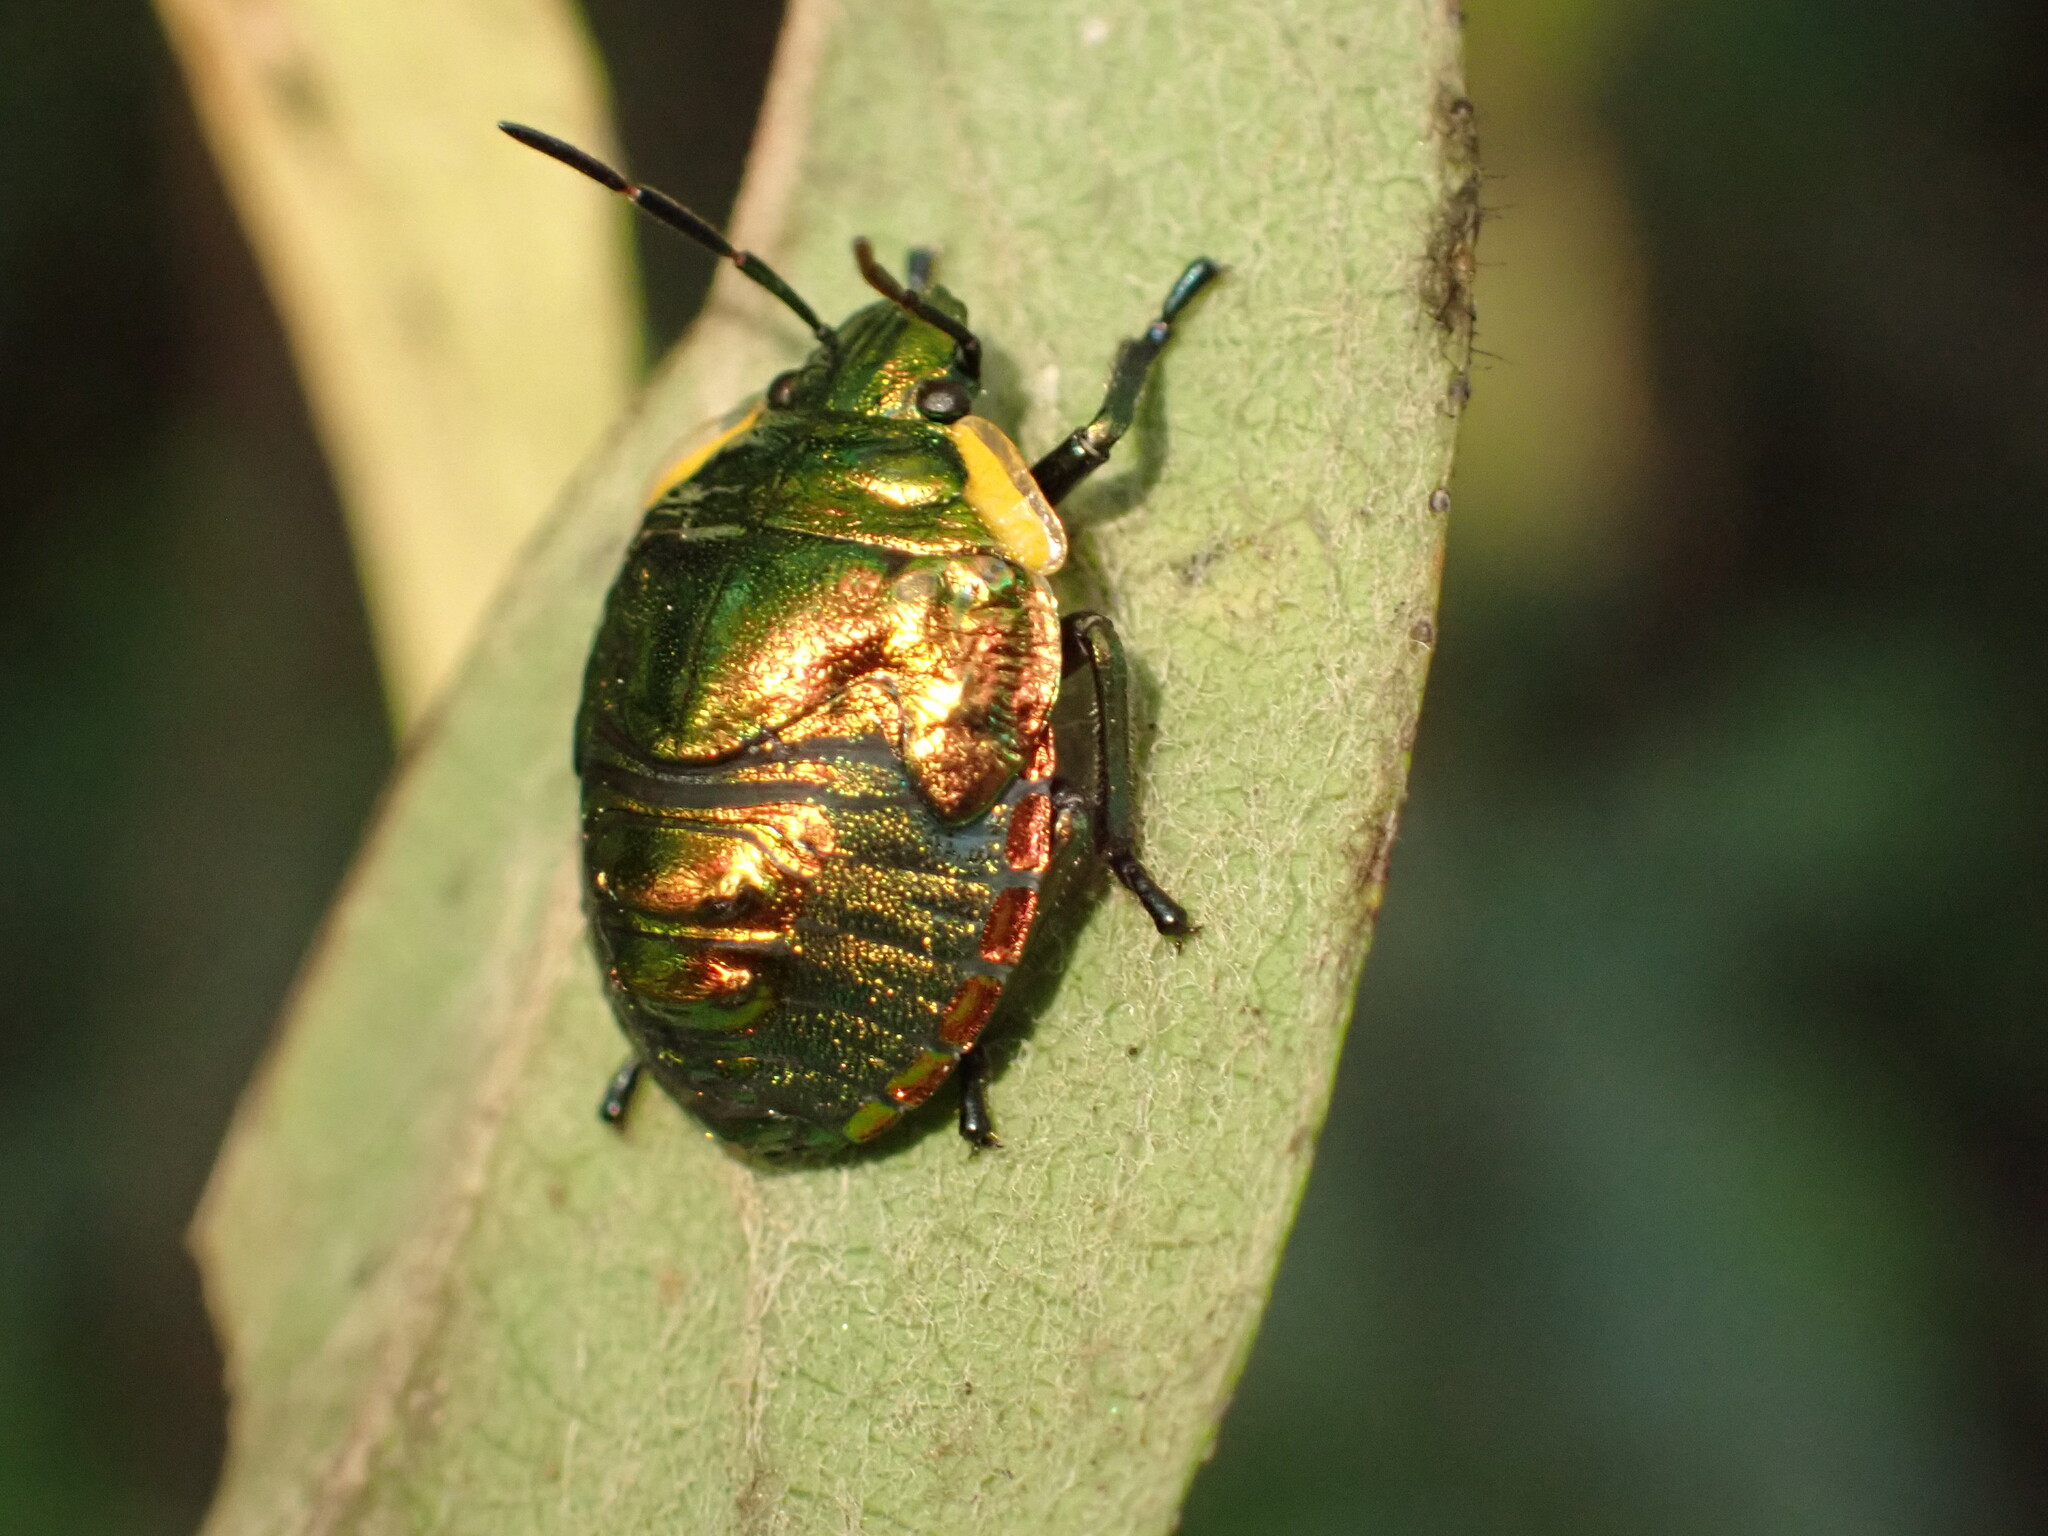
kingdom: Animalia
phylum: Arthropoda
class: Insecta
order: Hemiptera
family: Scutelleridae
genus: Pachycoris
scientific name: Pachycoris torridus
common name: Torrid jewel bug
